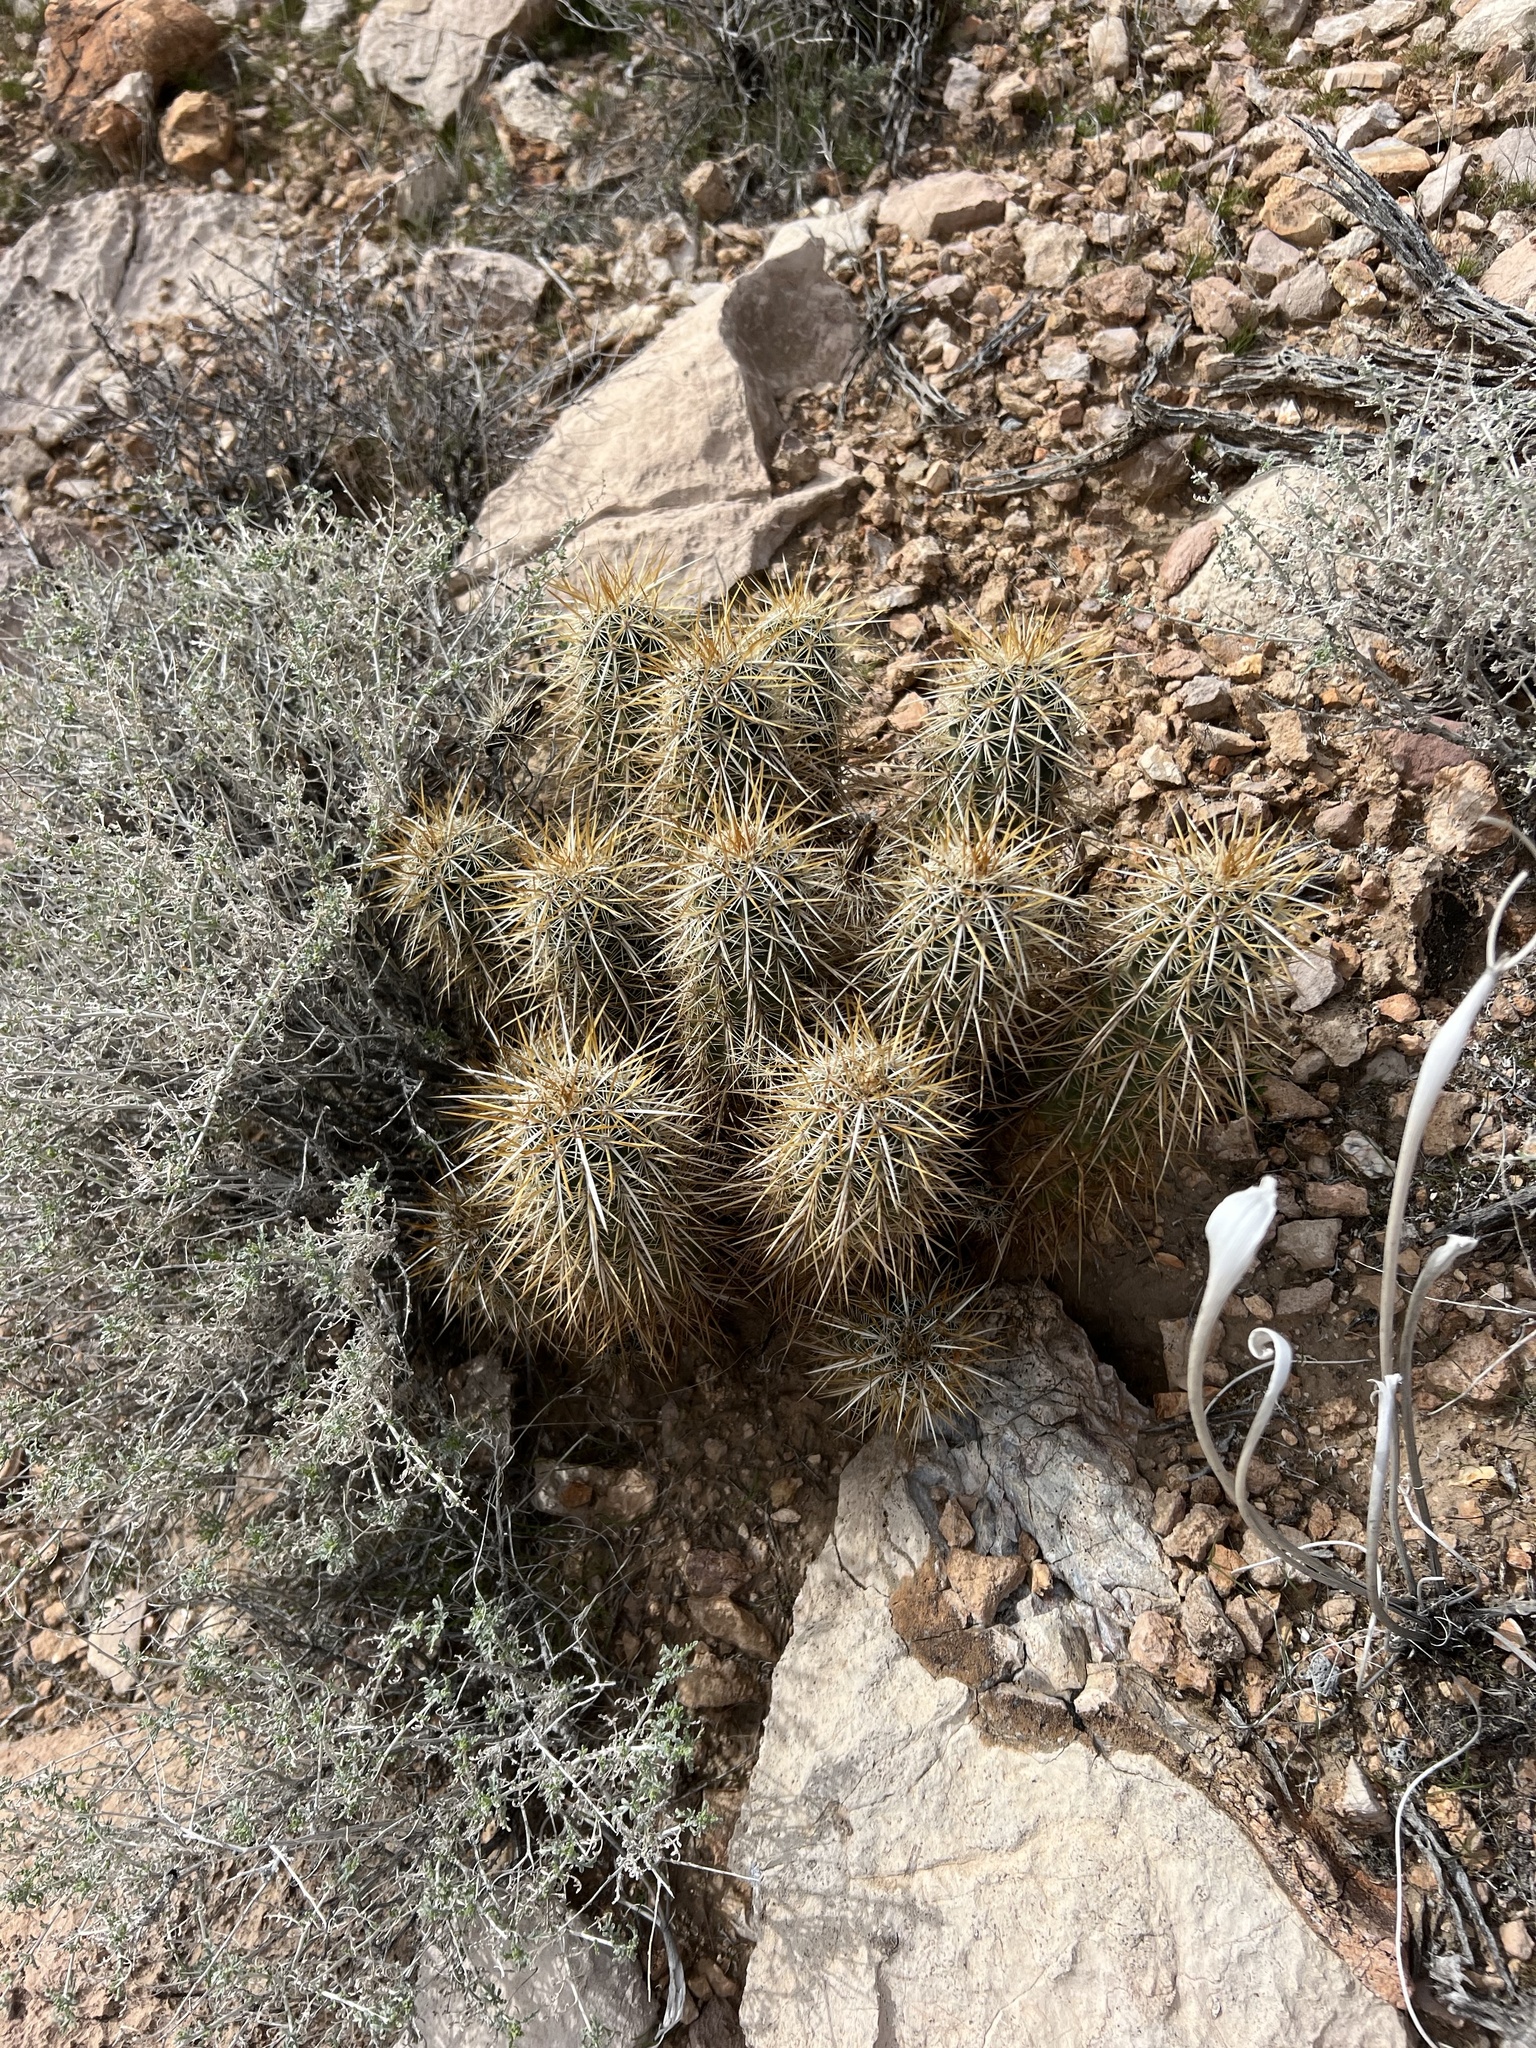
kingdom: Plantae
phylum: Tracheophyta
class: Magnoliopsida
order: Caryophyllales
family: Cactaceae
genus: Echinocereus
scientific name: Echinocereus engelmannii
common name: Engelmann's hedgehog cactus
